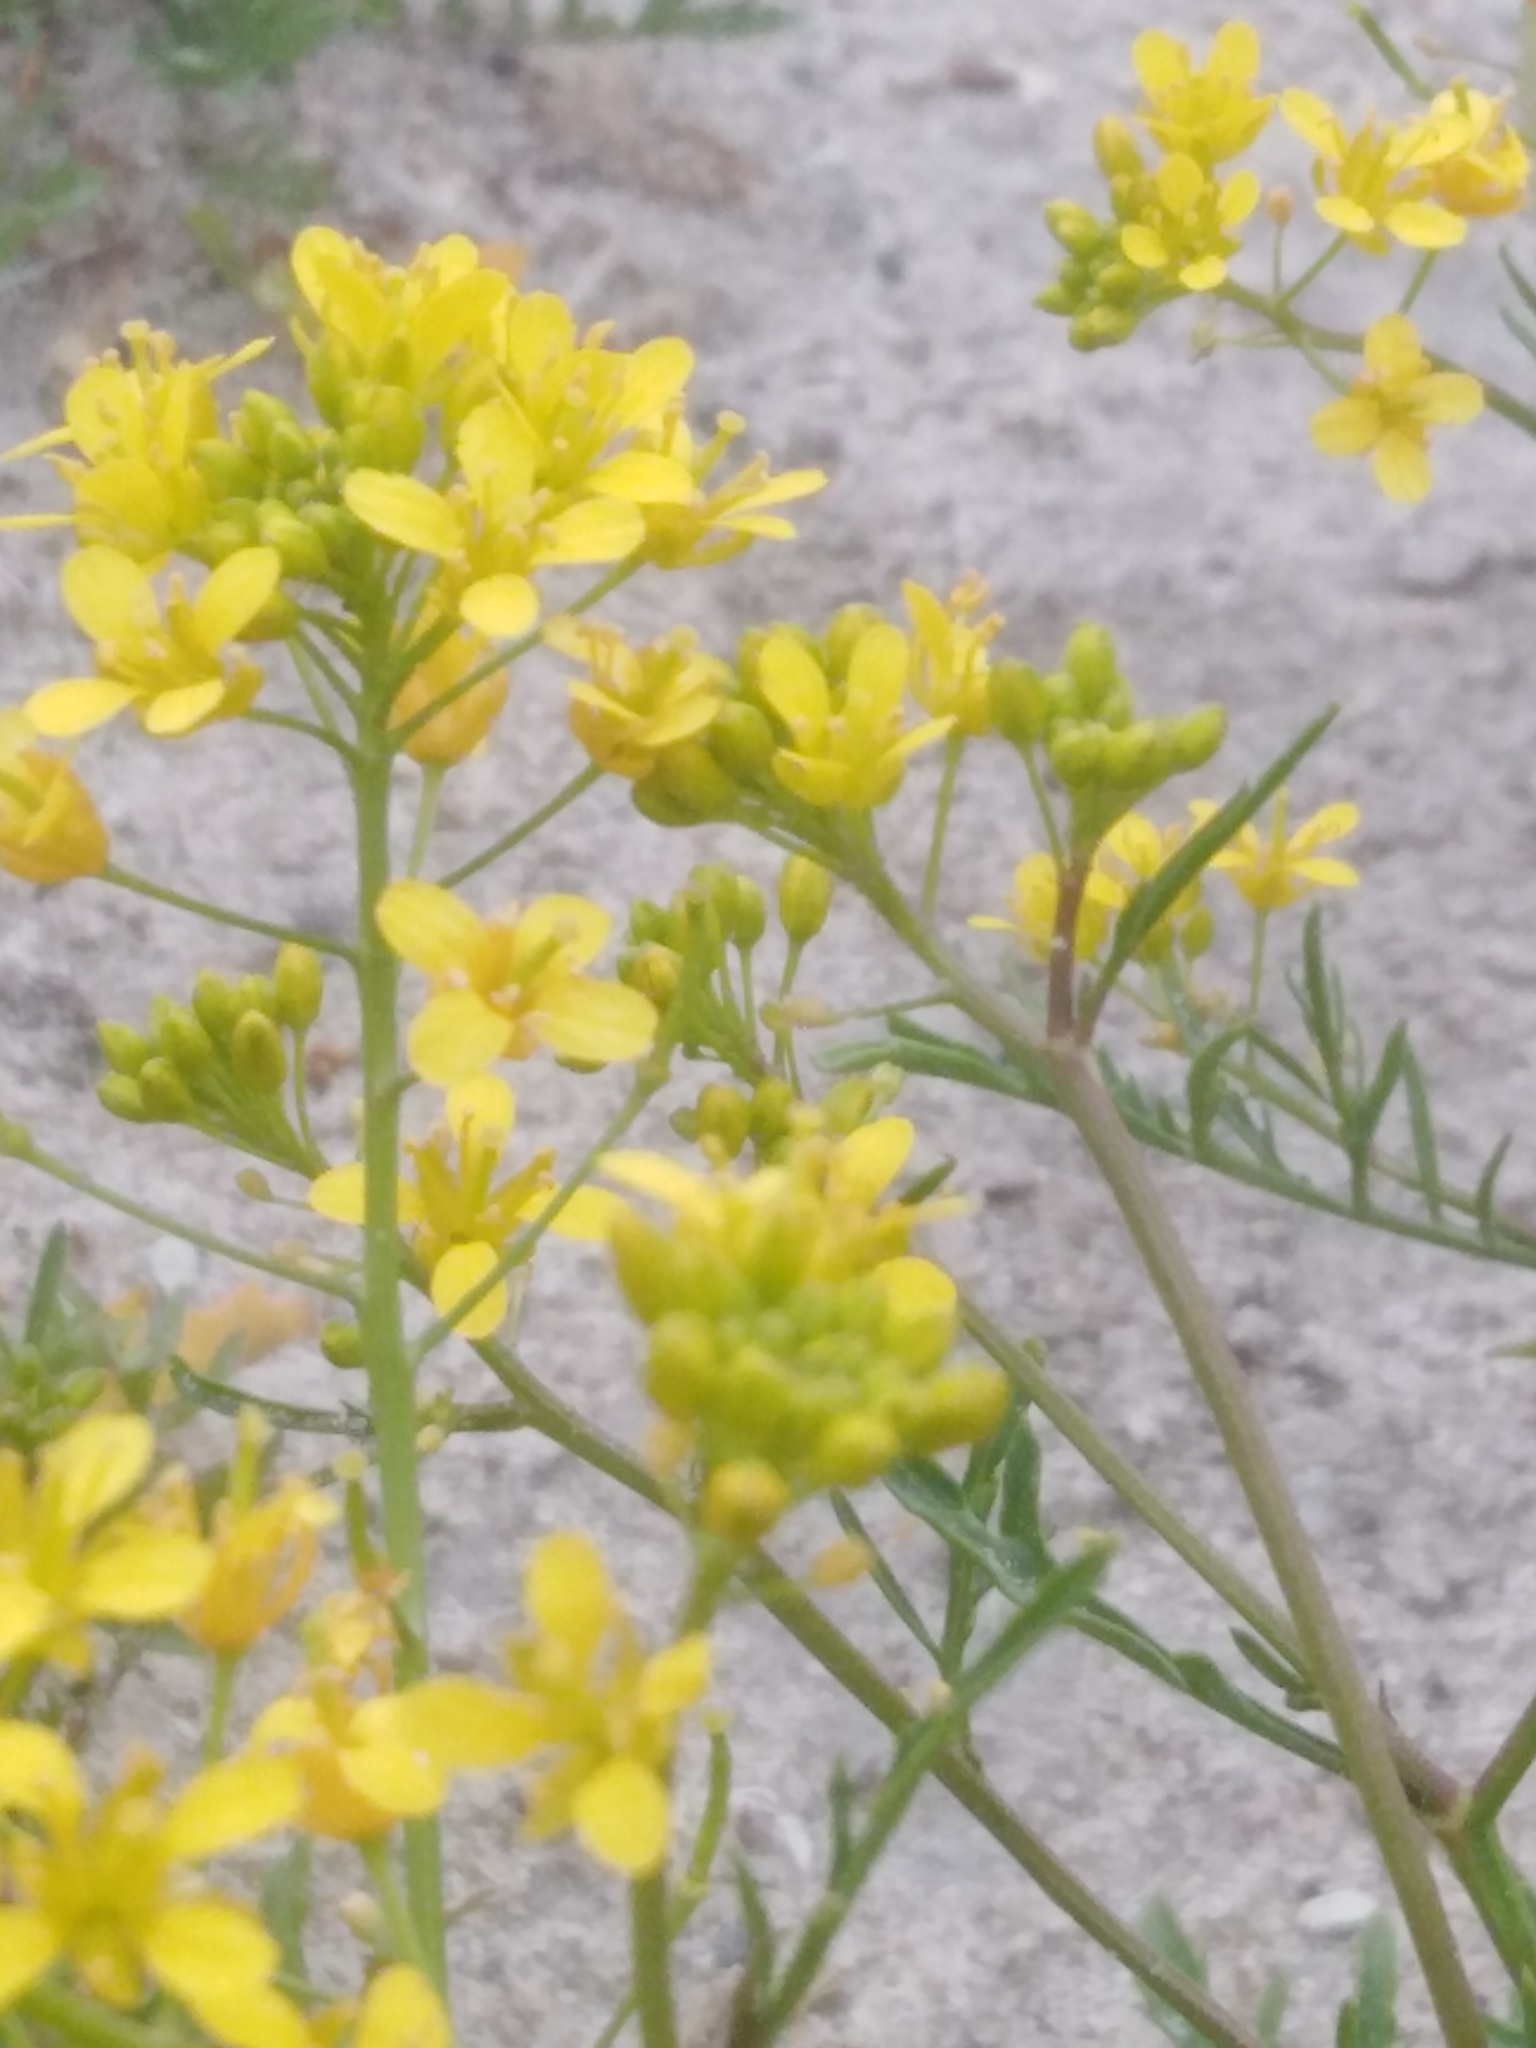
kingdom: Plantae
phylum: Tracheophyta
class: Magnoliopsida
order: Brassicales
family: Brassicaceae
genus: Rorippa
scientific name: Rorippa sylvestris
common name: Creeping yellowcress
